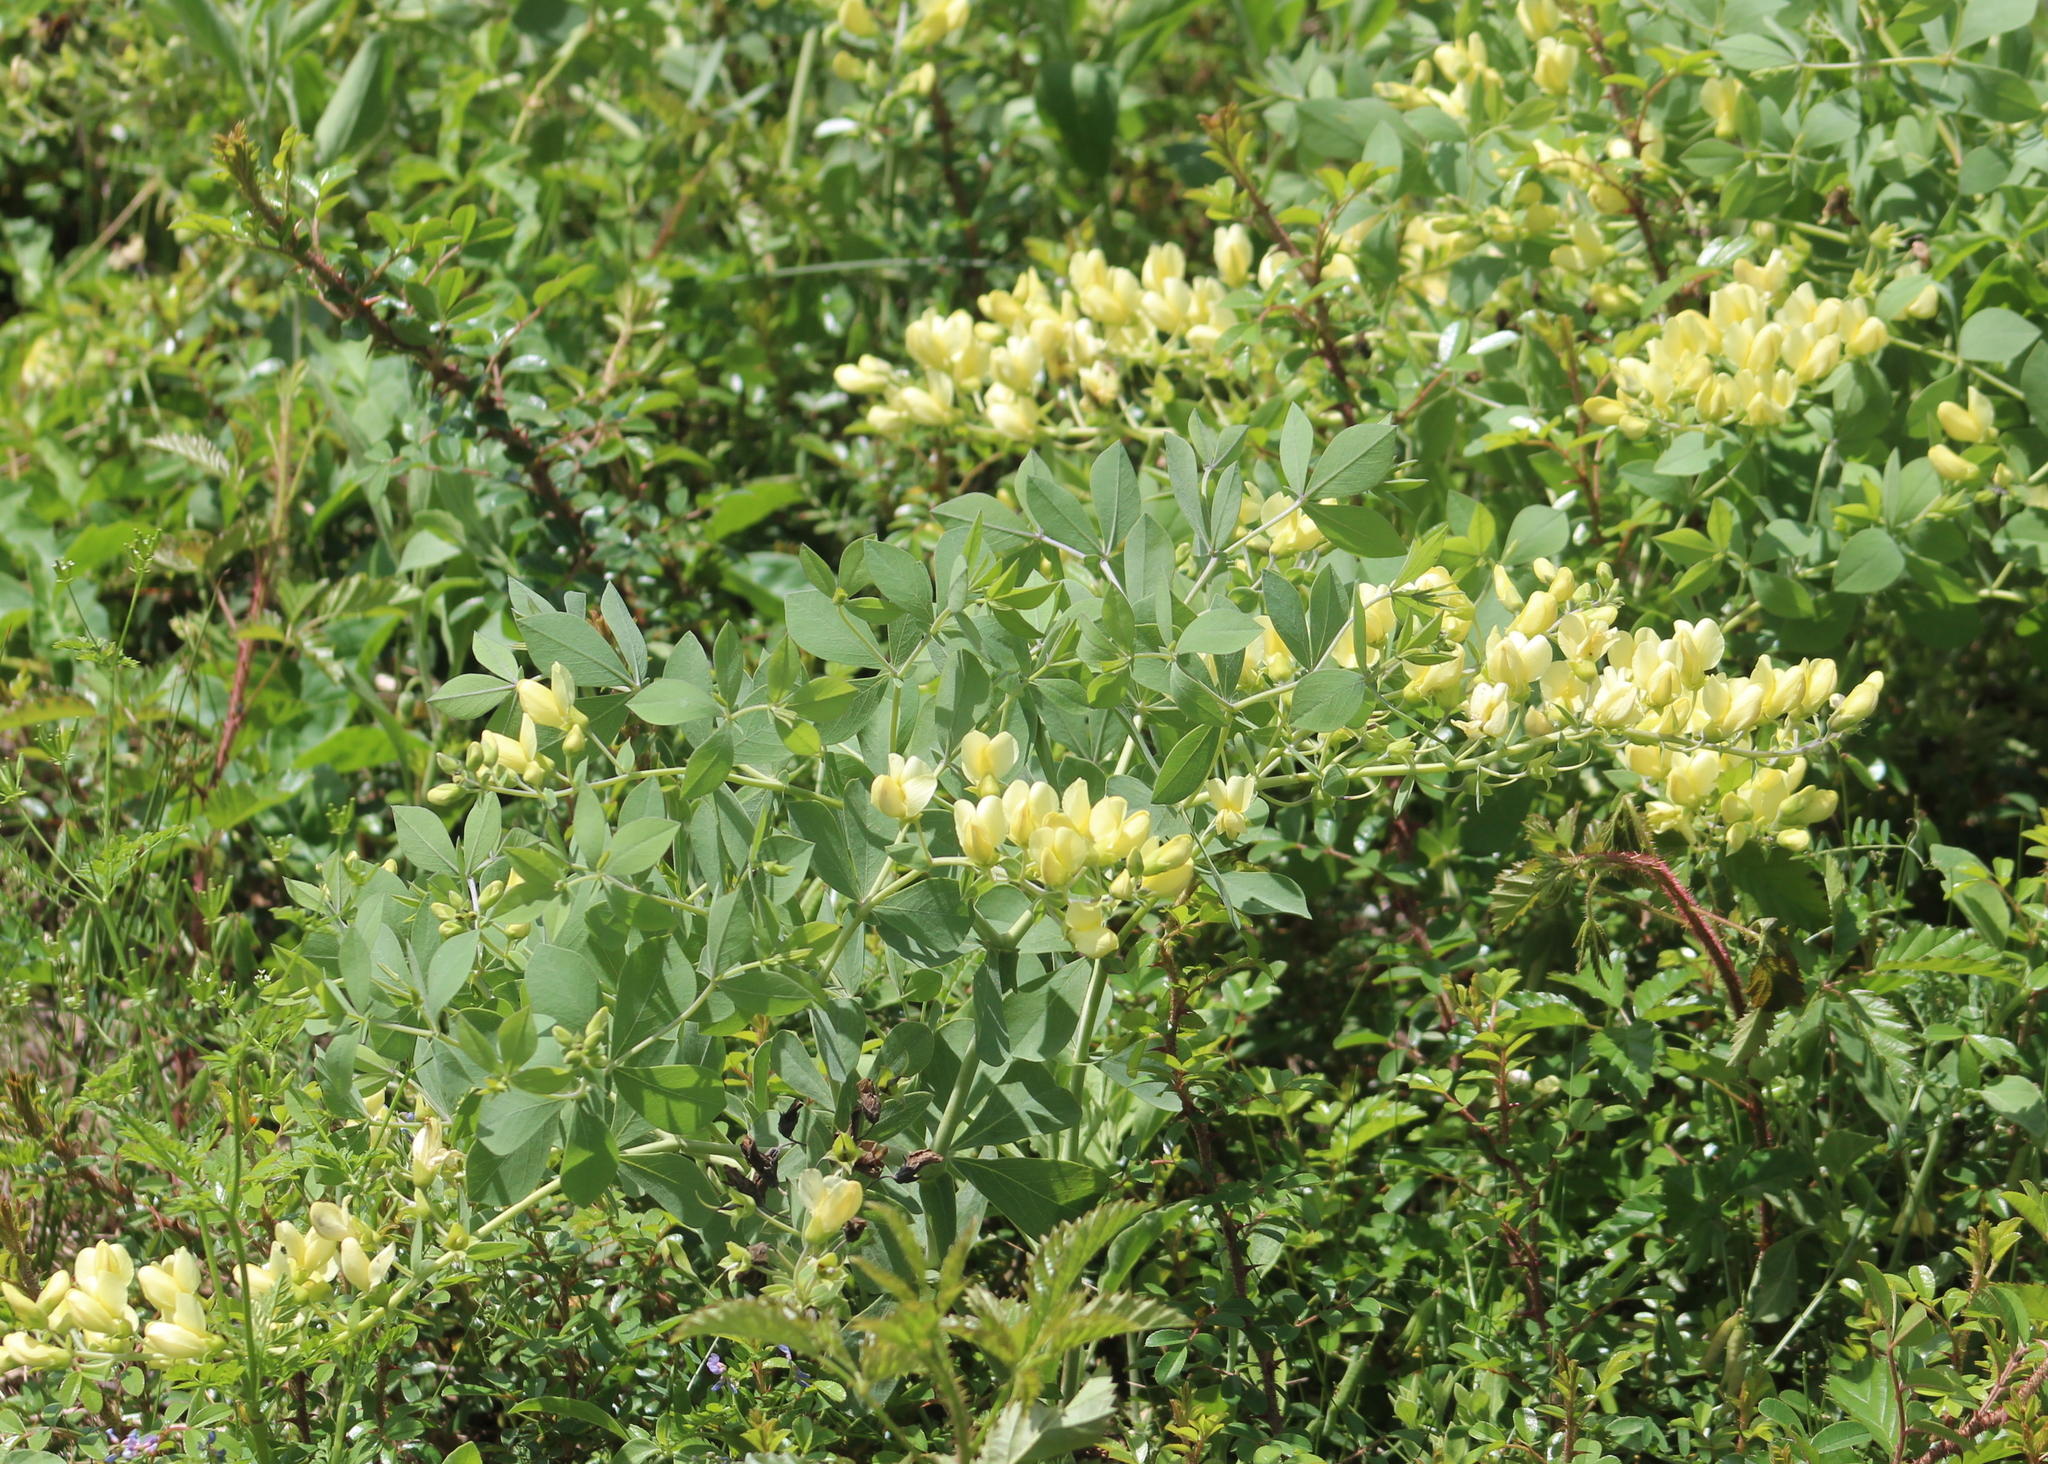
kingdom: Plantae
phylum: Tracheophyta
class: Magnoliopsida
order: Fabales
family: Fabaceae
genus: Baptisia
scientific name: Baptisia bracteata
